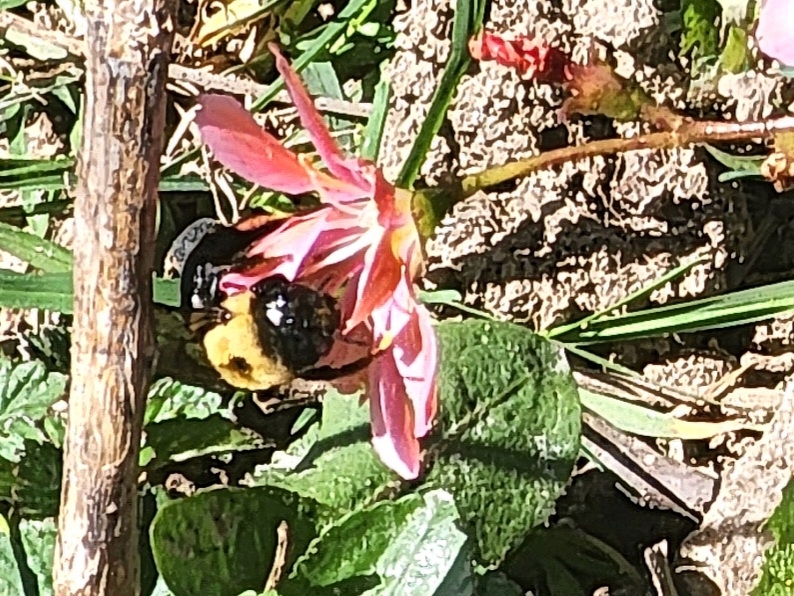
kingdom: Animalia
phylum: Arthropoda
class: Insecta
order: Hymenoptera
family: Apidae
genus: Xylocopa
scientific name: Xylocopa virginica
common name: Carpenter bee
